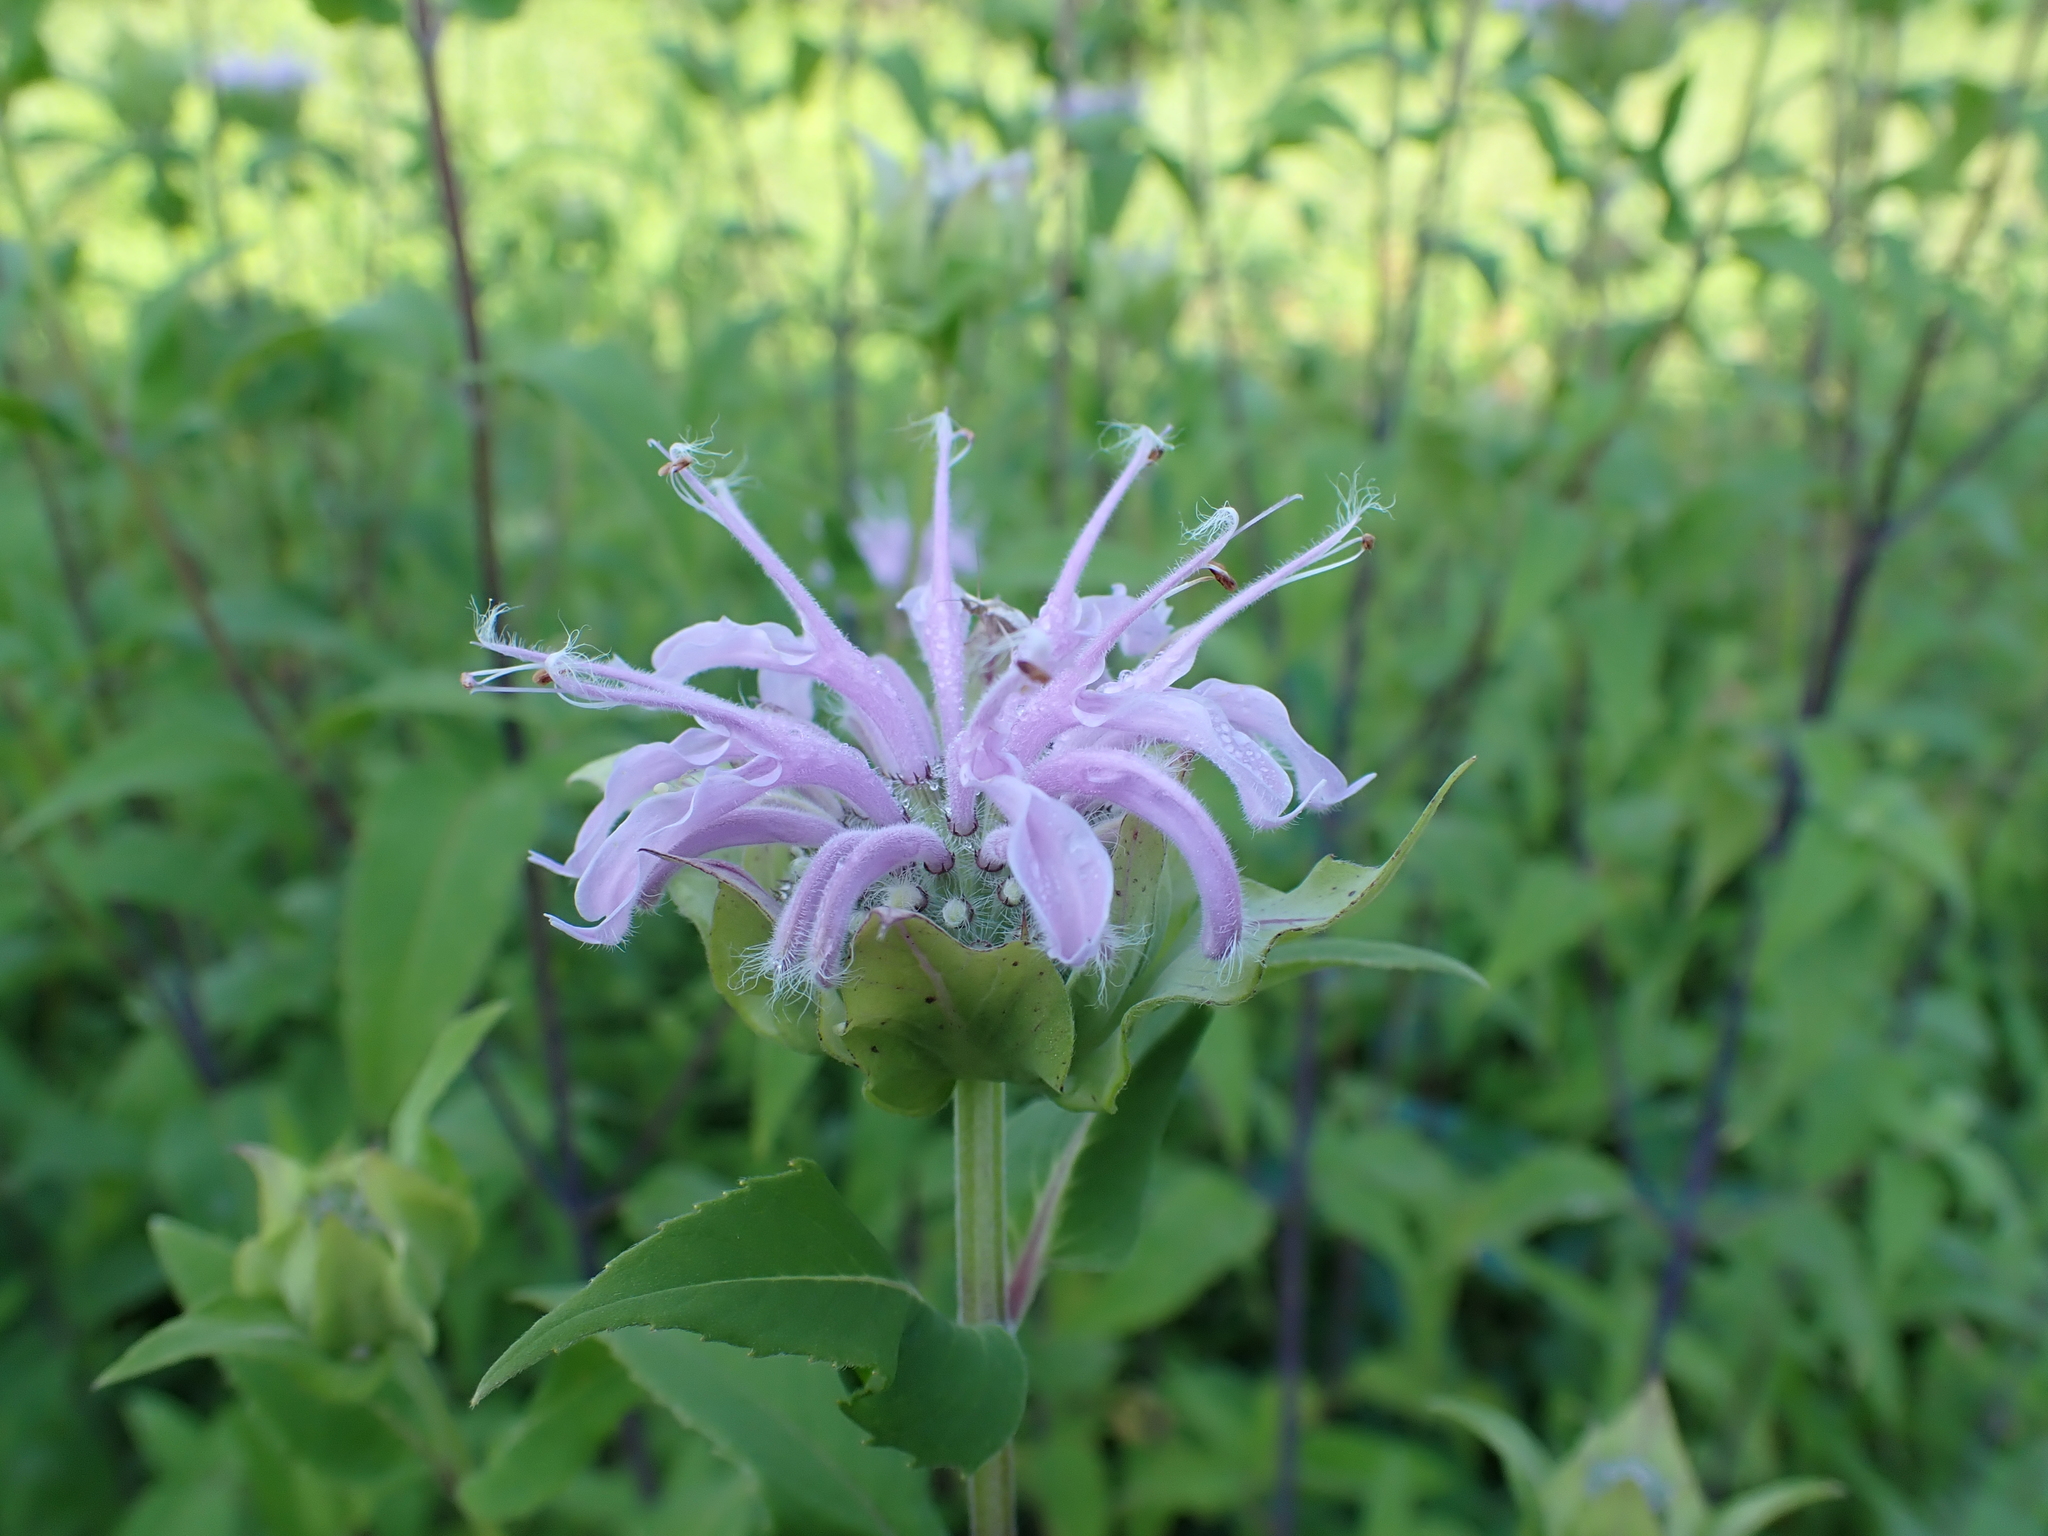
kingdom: Plantae
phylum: Tracheophyta
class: Magnoliopsida
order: Lamiales
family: Lamiaceae
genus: Monarda
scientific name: Monarda fistulosa
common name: Purple beebalm
